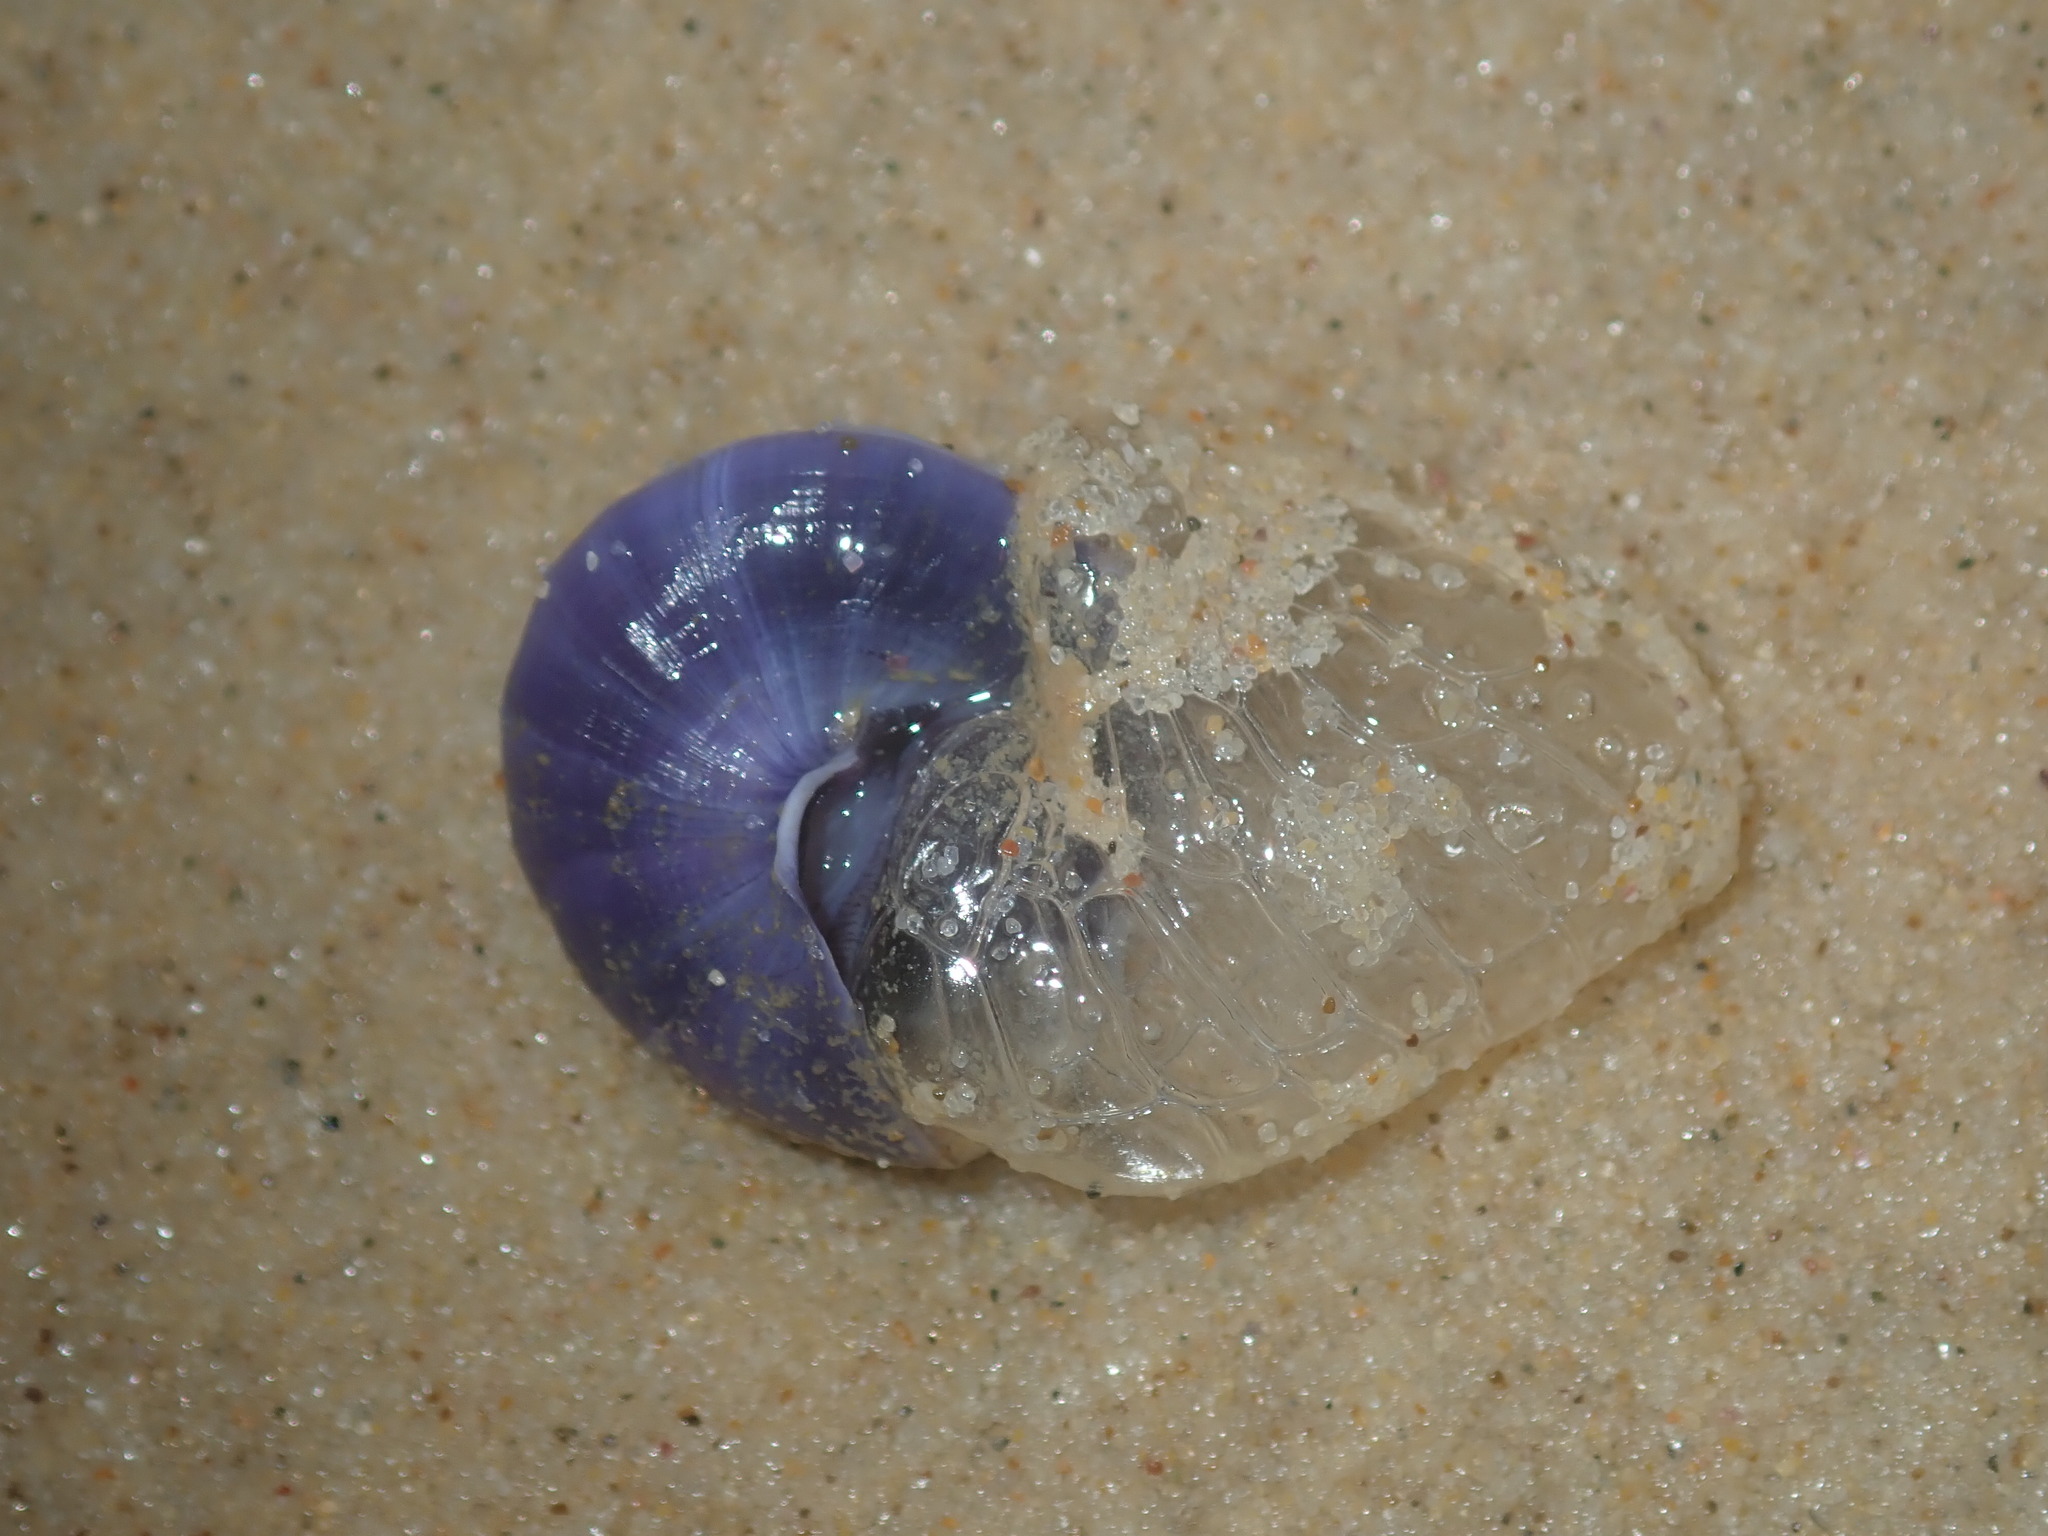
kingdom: Animalia
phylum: Mollusca
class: Gastropoda
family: Epitoniidae
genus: Janthina
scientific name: Janthina janthina
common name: Common janthina
